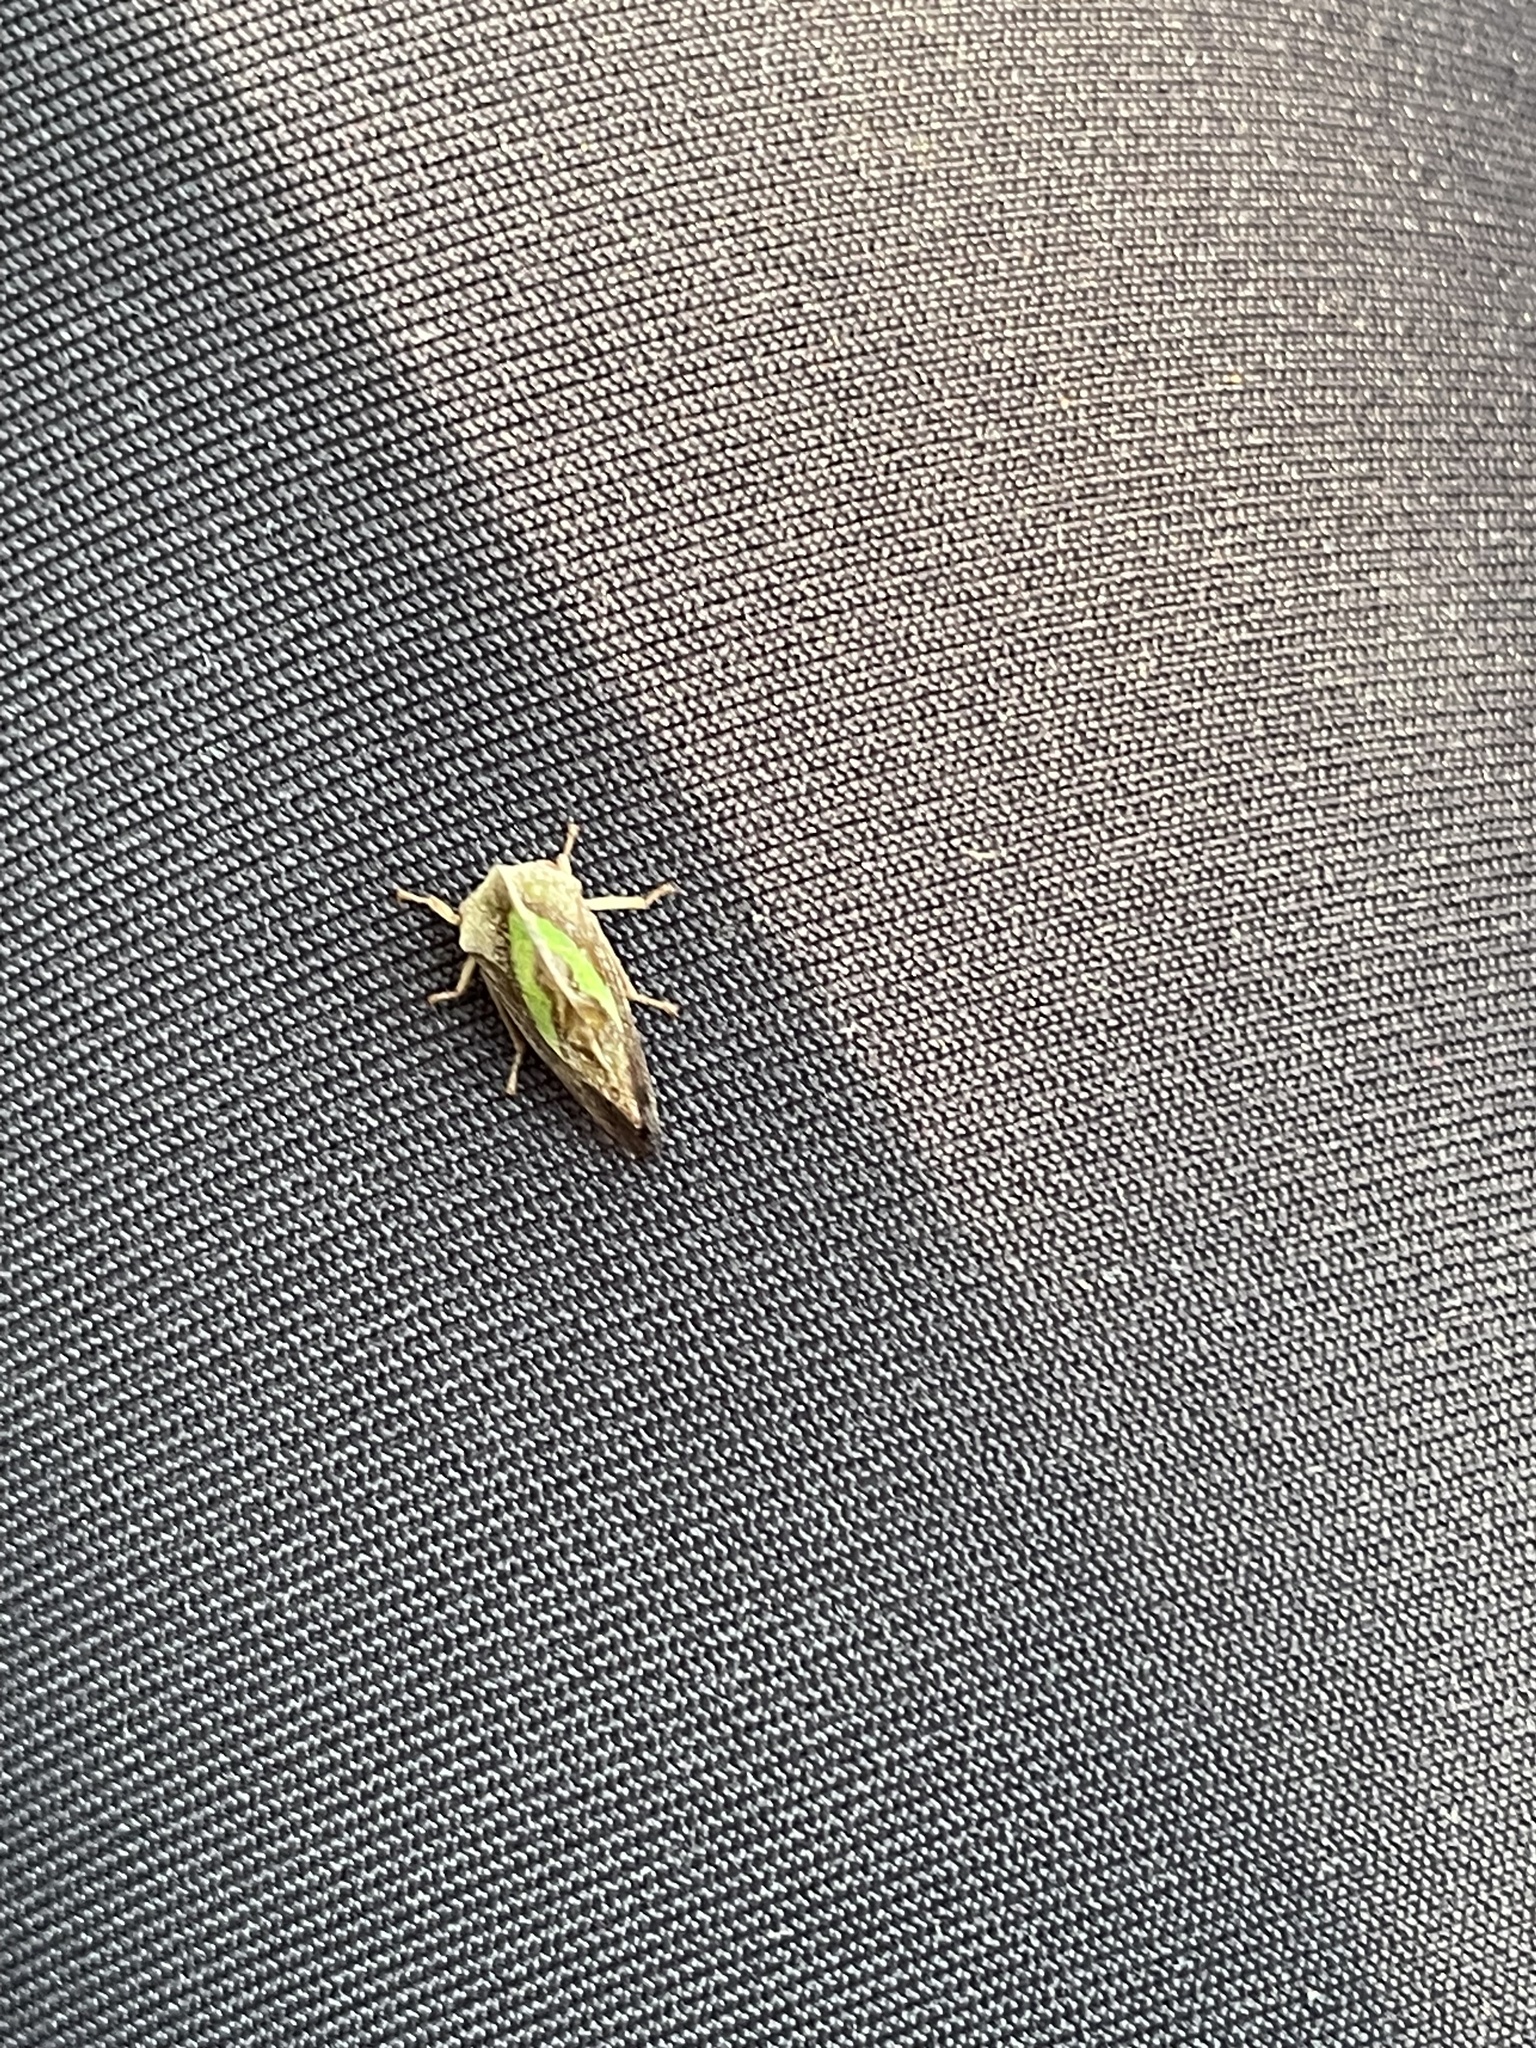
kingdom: Animalia
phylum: Arthropoda
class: Insecta
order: Hemiptera
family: Membracidae
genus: Smilia
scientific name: Smilia camelus
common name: Camel treehopper
